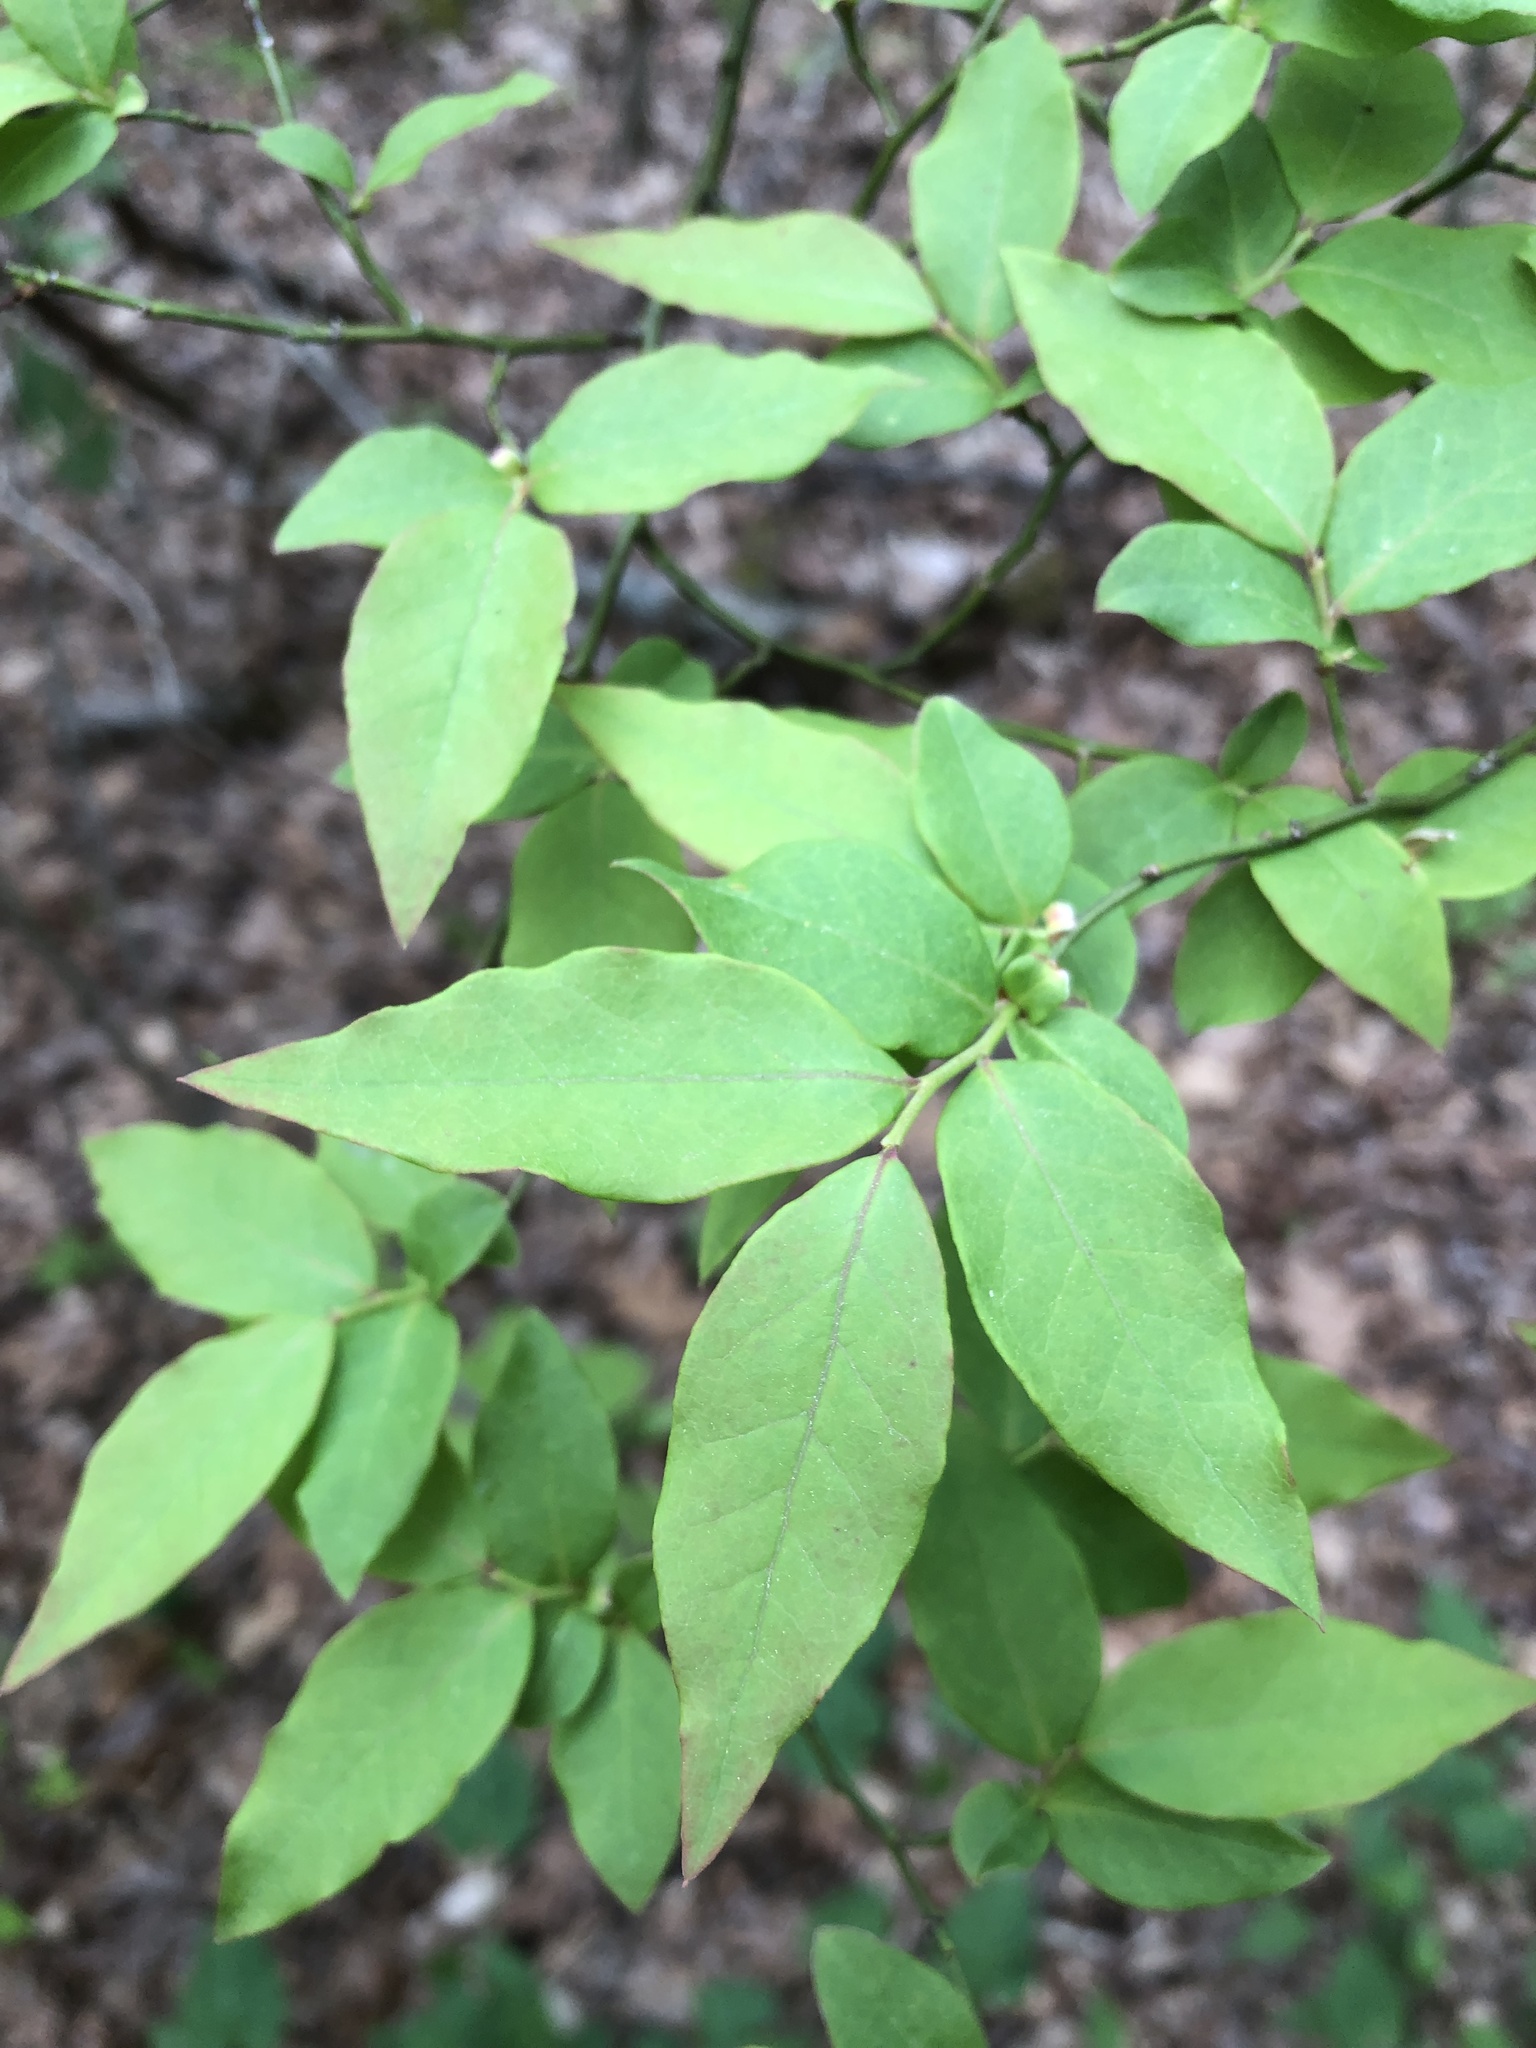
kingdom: Plantae
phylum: Tracheophyta
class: Magnoliopsida
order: Ericales
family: Ericaceae
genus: Vaccinium
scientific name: Vaccinium corymbosum
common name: Blueberry
